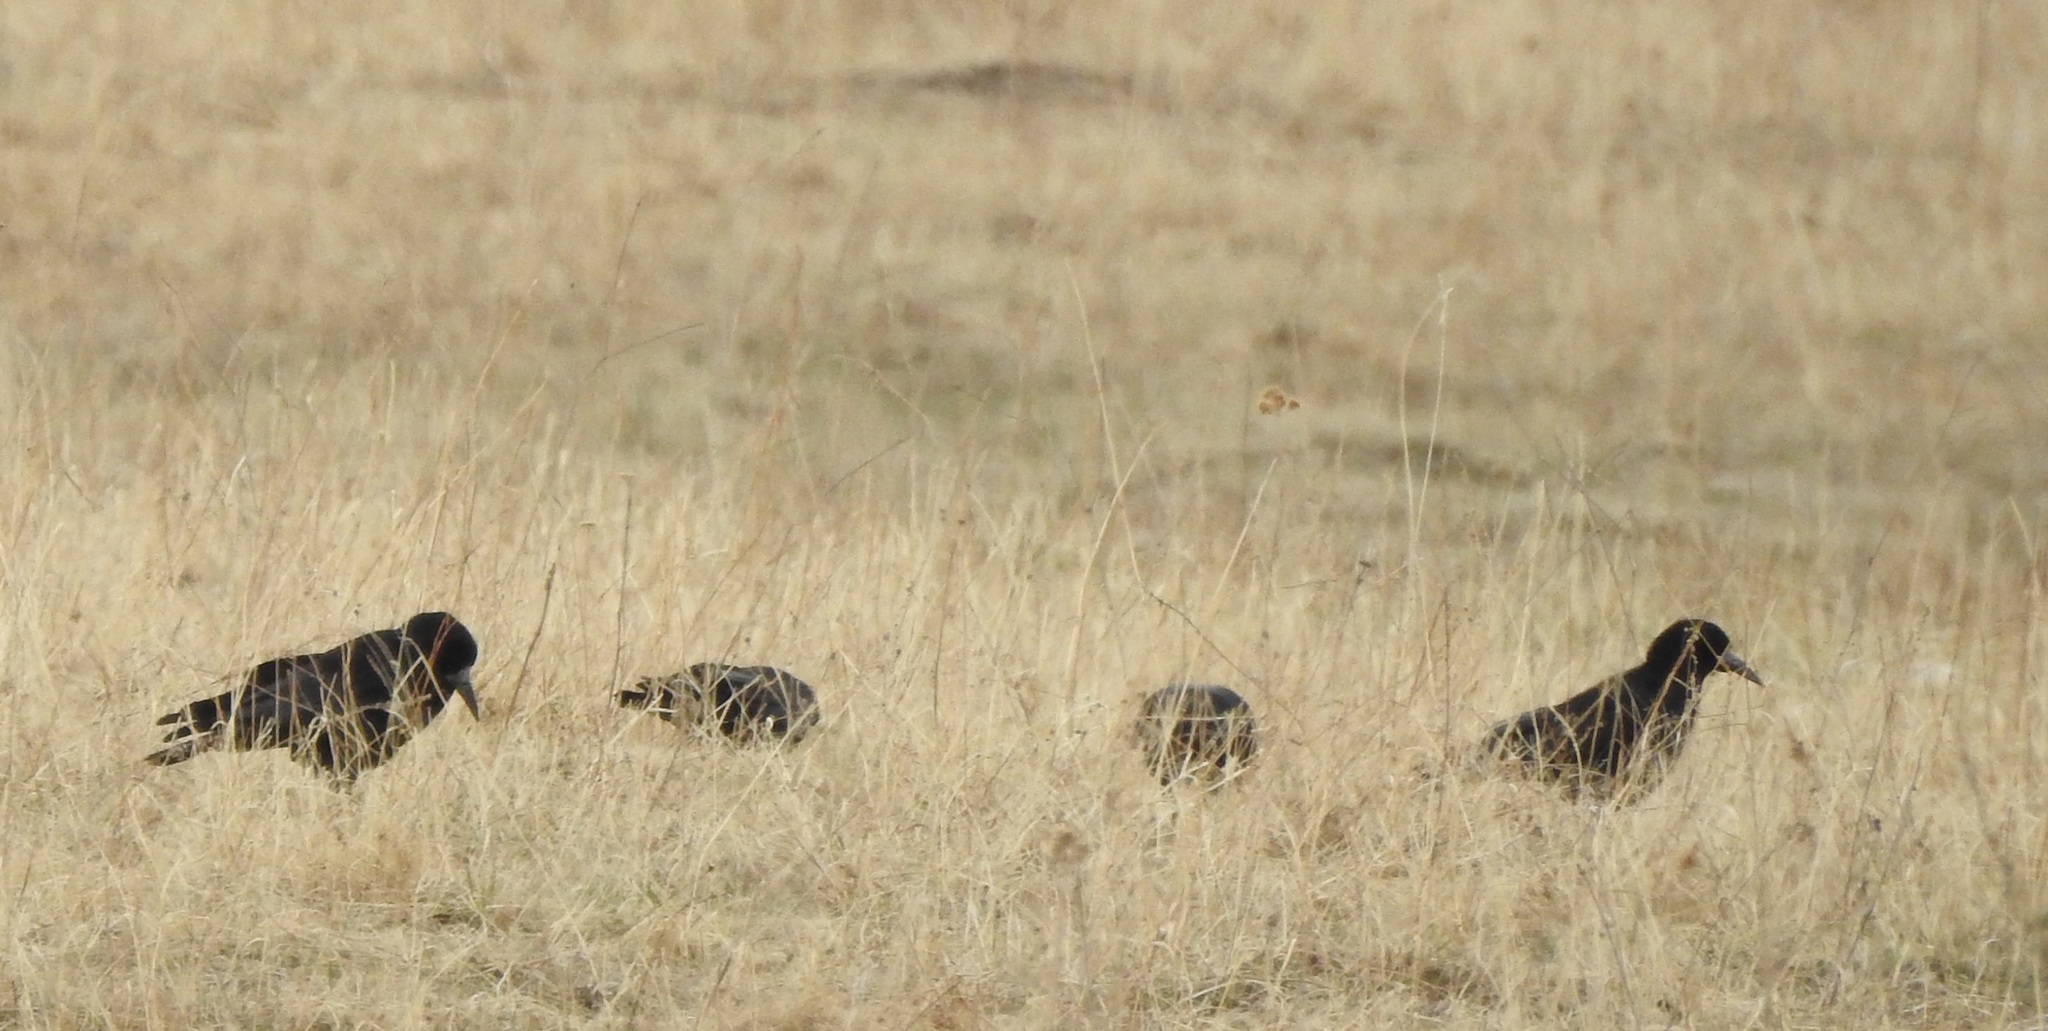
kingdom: Animalia
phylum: Chordata
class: Aves
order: Passeriformes
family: Corvidae
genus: Corvus
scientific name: Corvus frugilegus
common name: Rook
